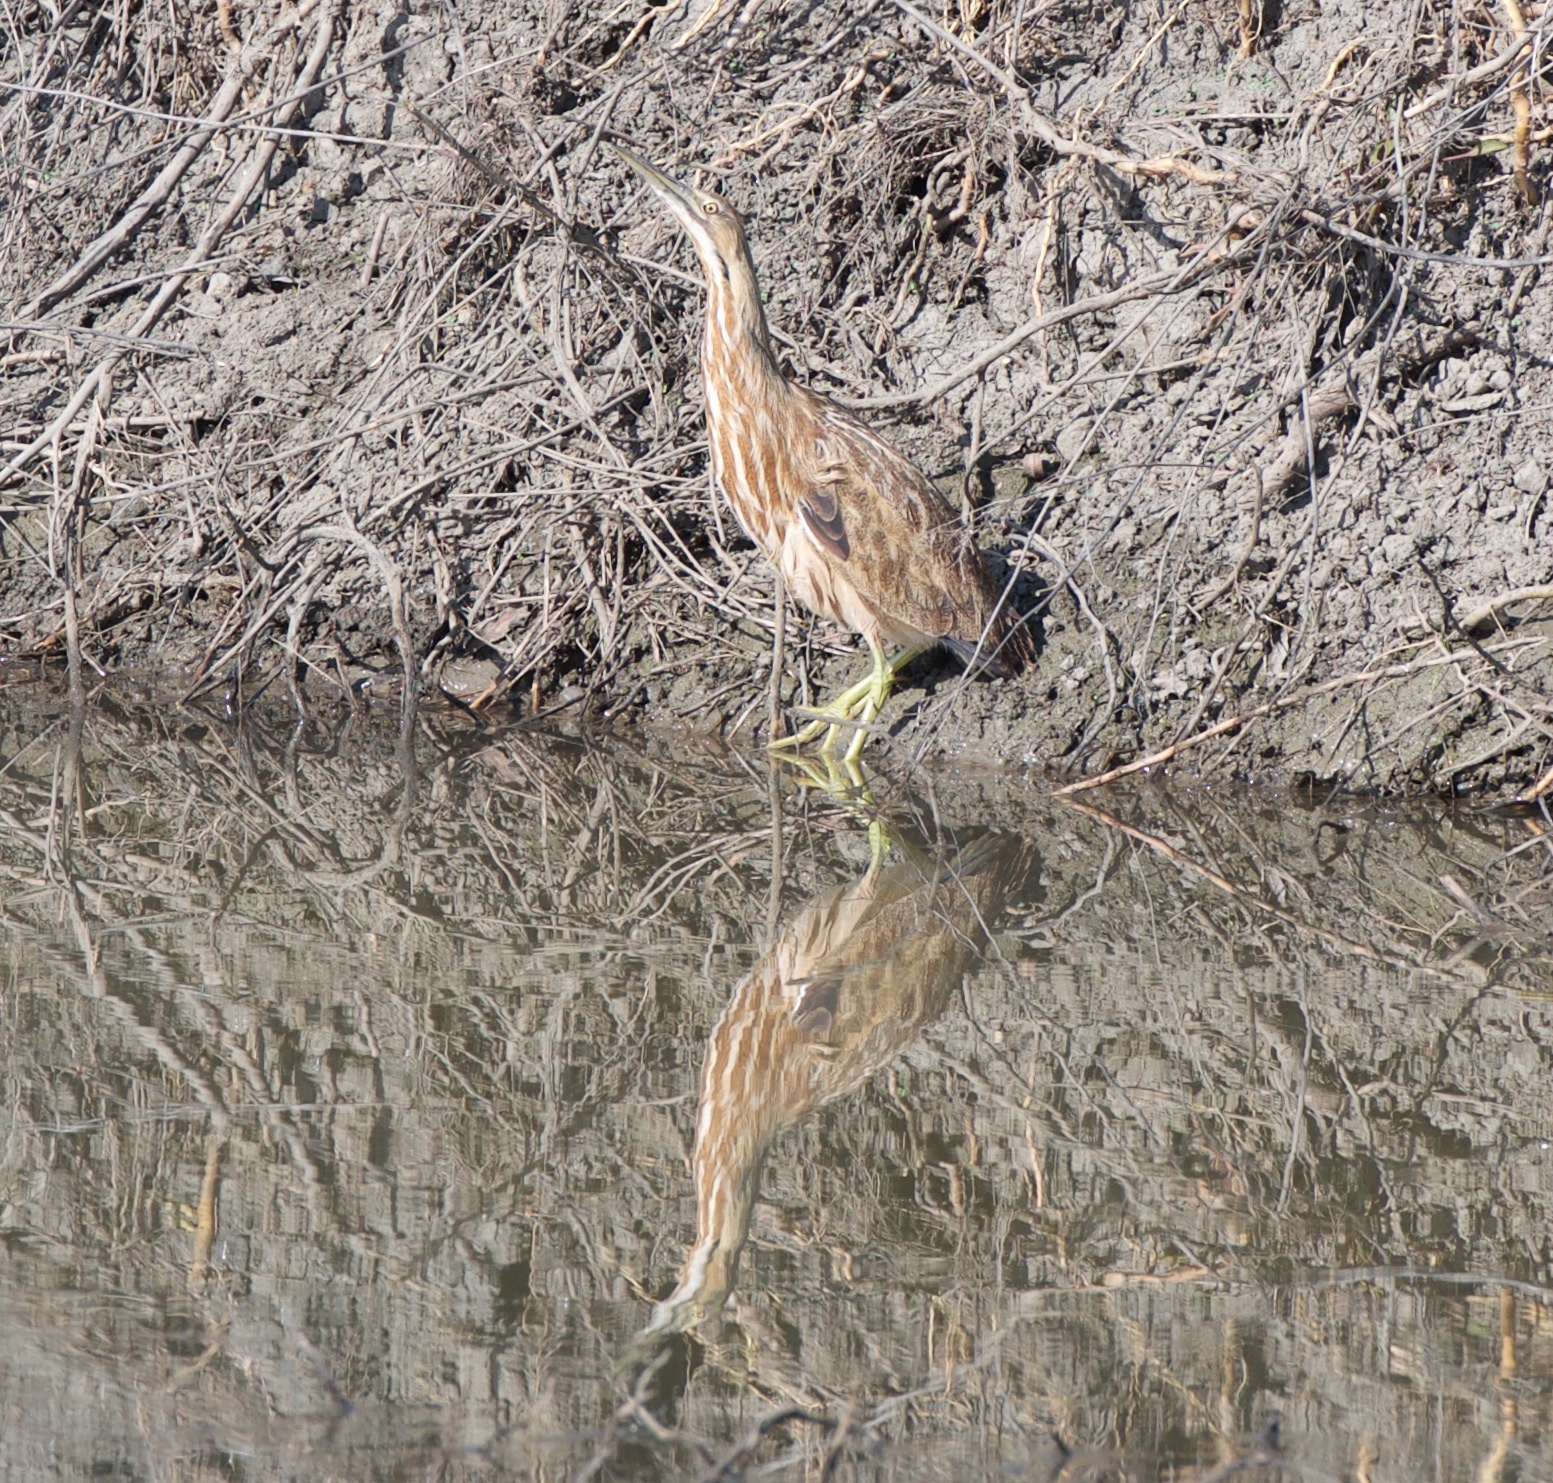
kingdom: Animalia
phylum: Chordata
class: Aves
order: Pelecaniformes
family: Ardeidae
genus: Botaurus
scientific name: Botaurus lentiginosus
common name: American bittern
